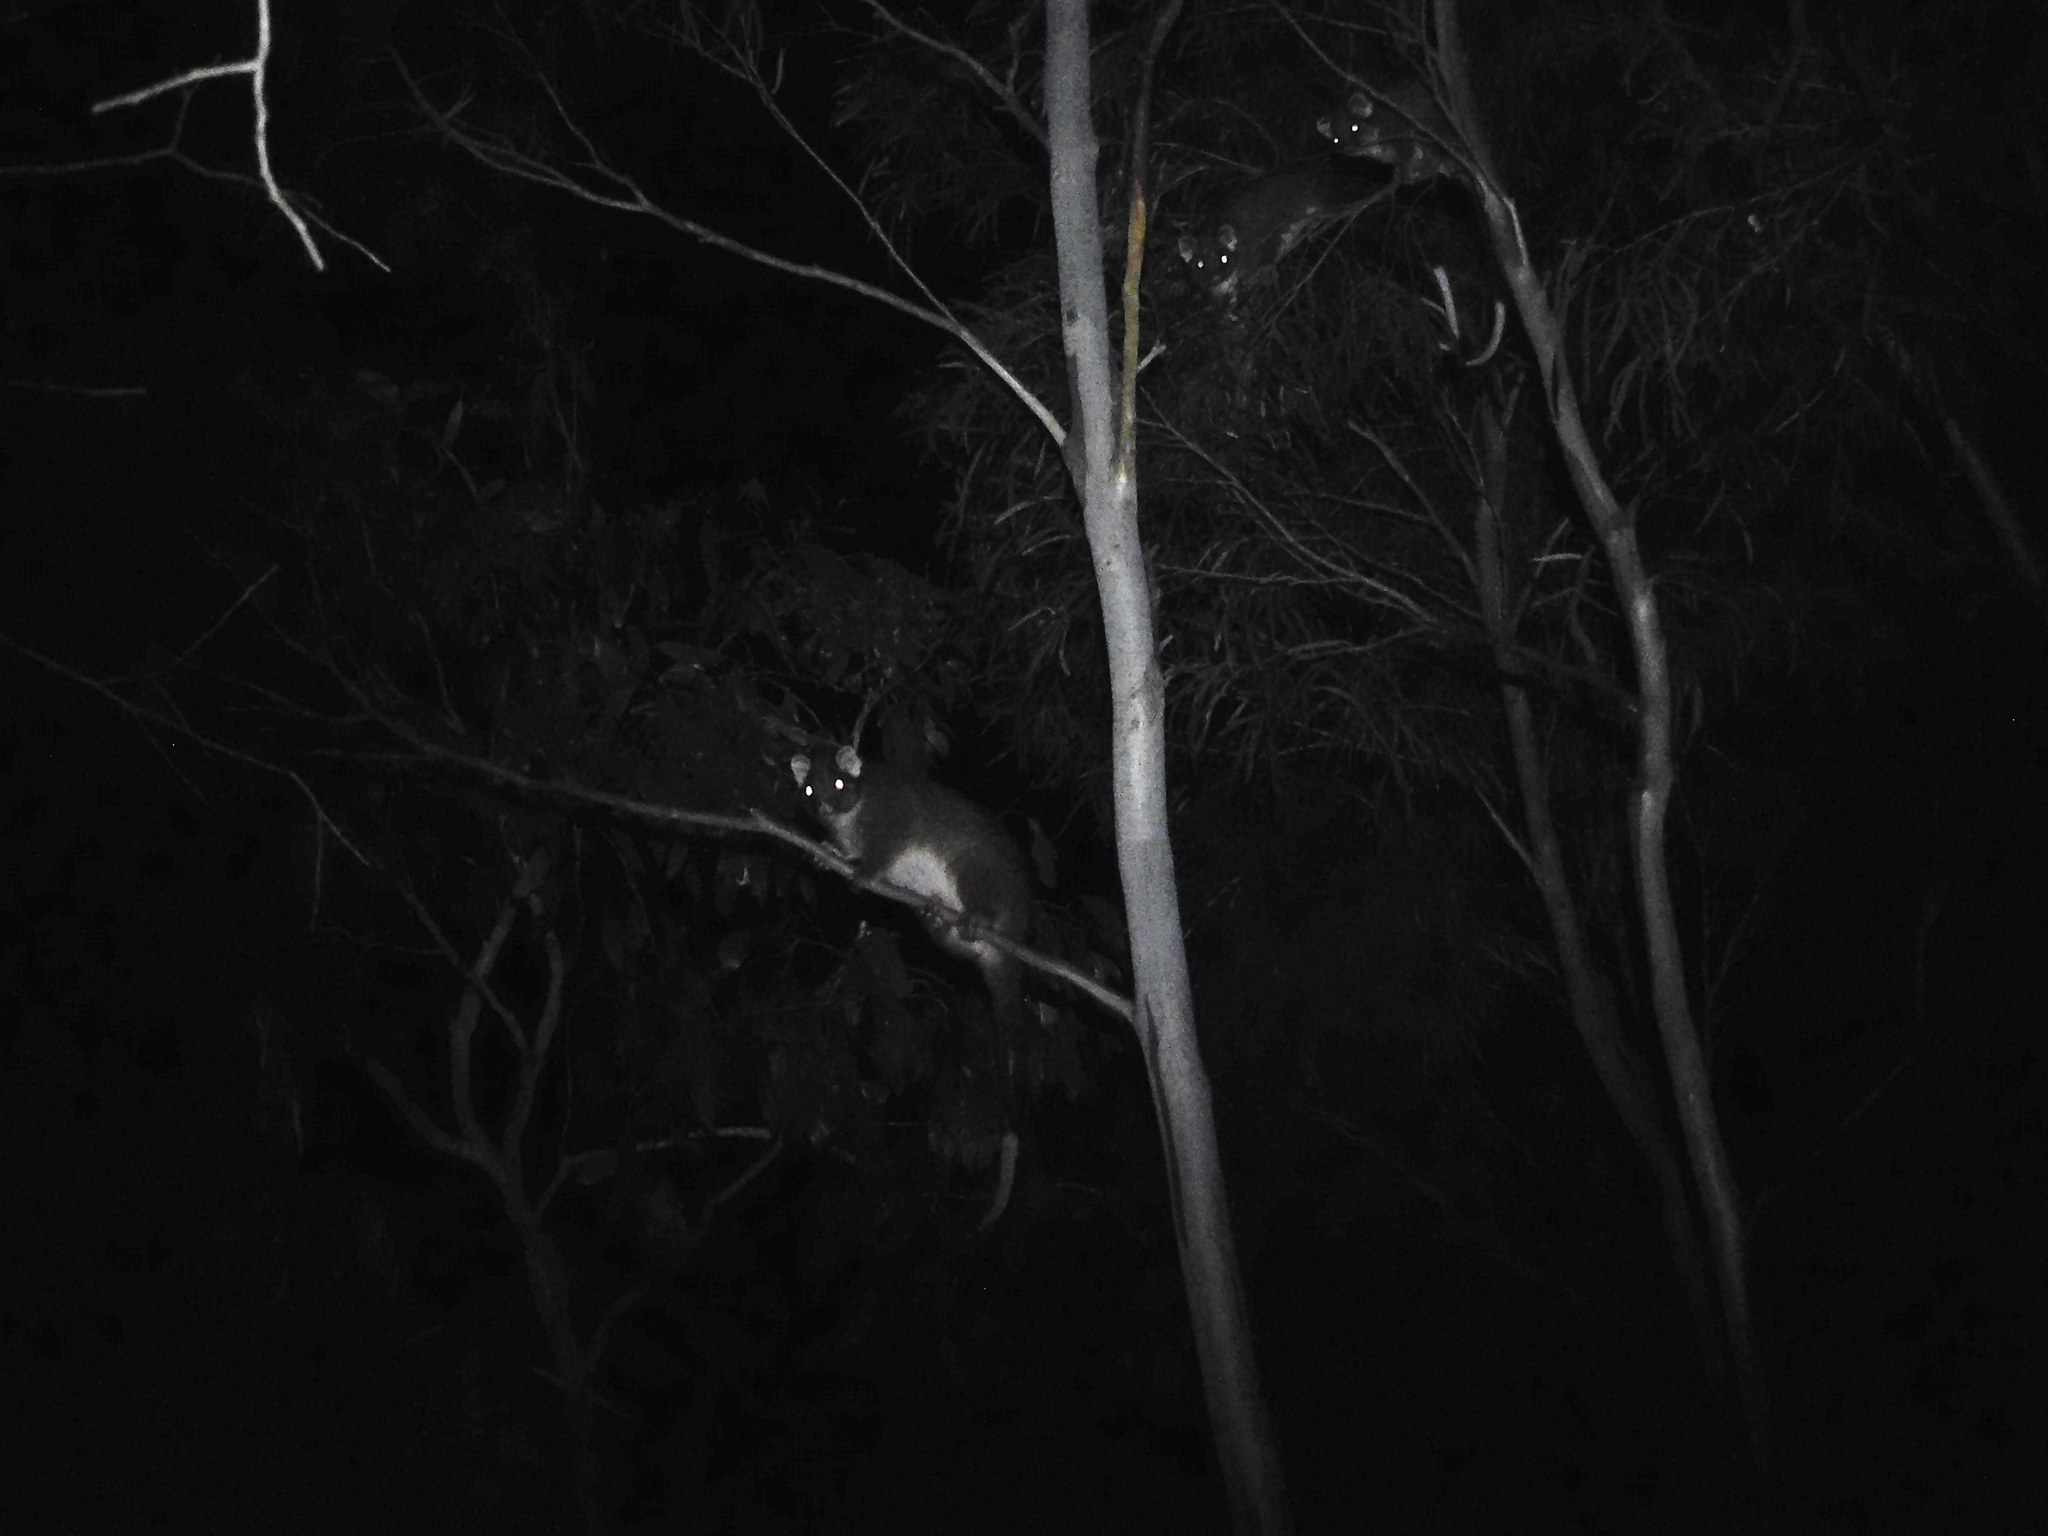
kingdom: Animalia
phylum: Chordata
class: Mammalia
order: Diprotodontia
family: Pseudocheiridae
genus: Pseudocheirus
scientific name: Pseudocheirus peregrinus
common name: Common ringtail possum
